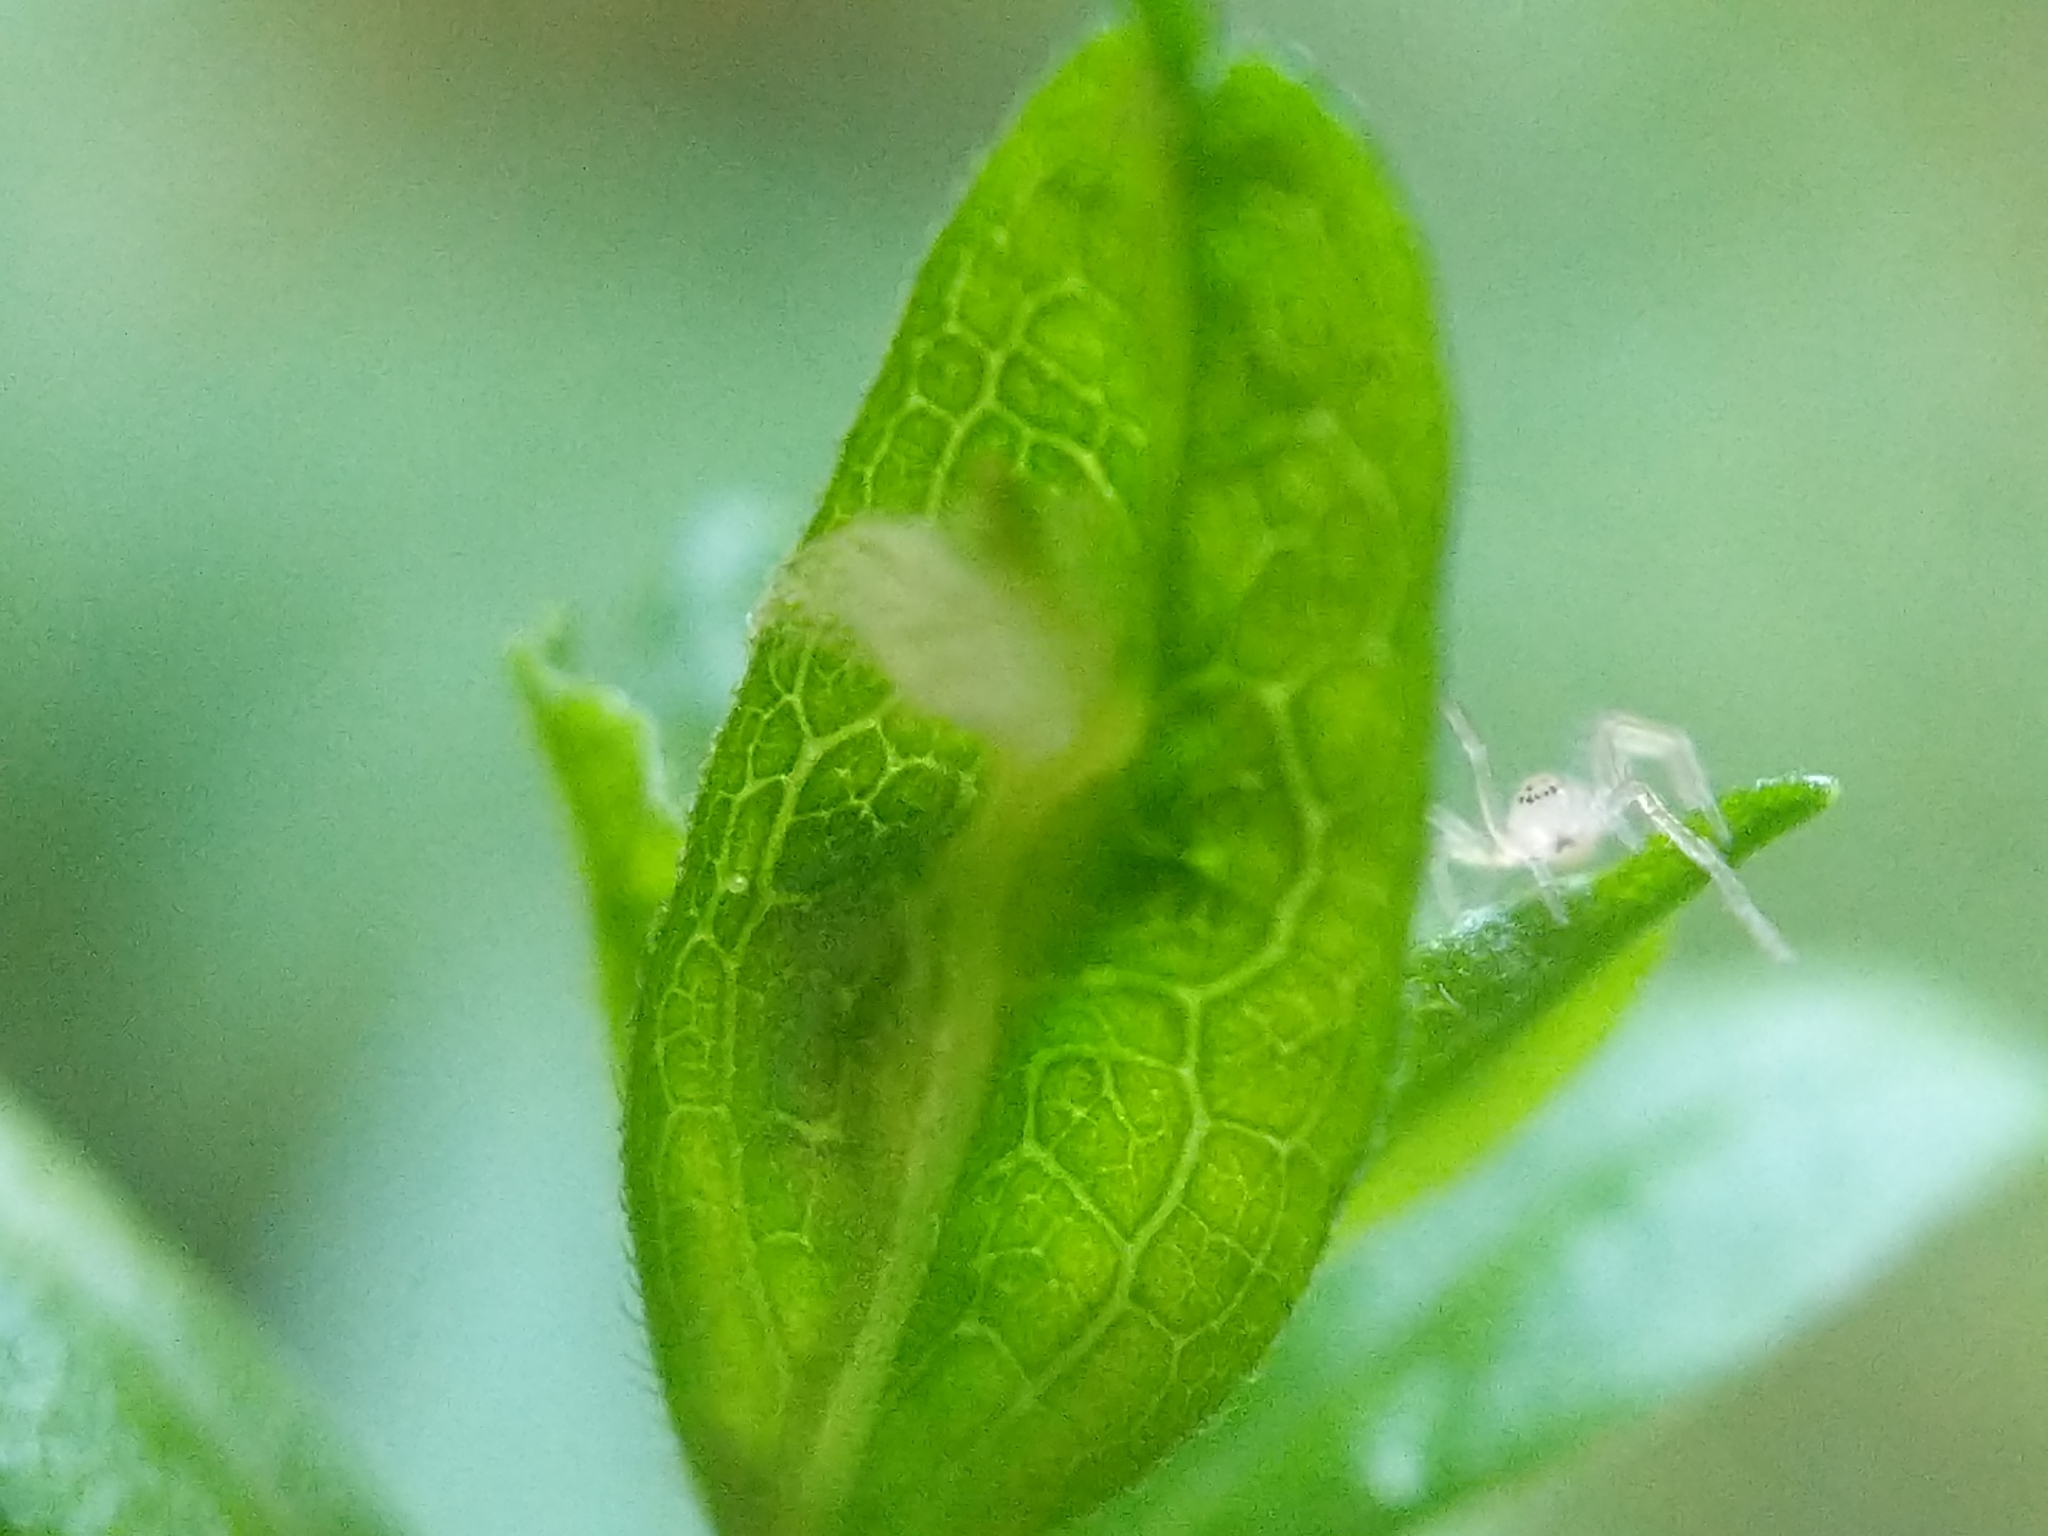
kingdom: Animalia
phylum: Arthropoda
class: Insecta
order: Diptera
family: Cecidomyiidae
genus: Rhopalomyia
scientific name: Rhopalomyia clarkei
